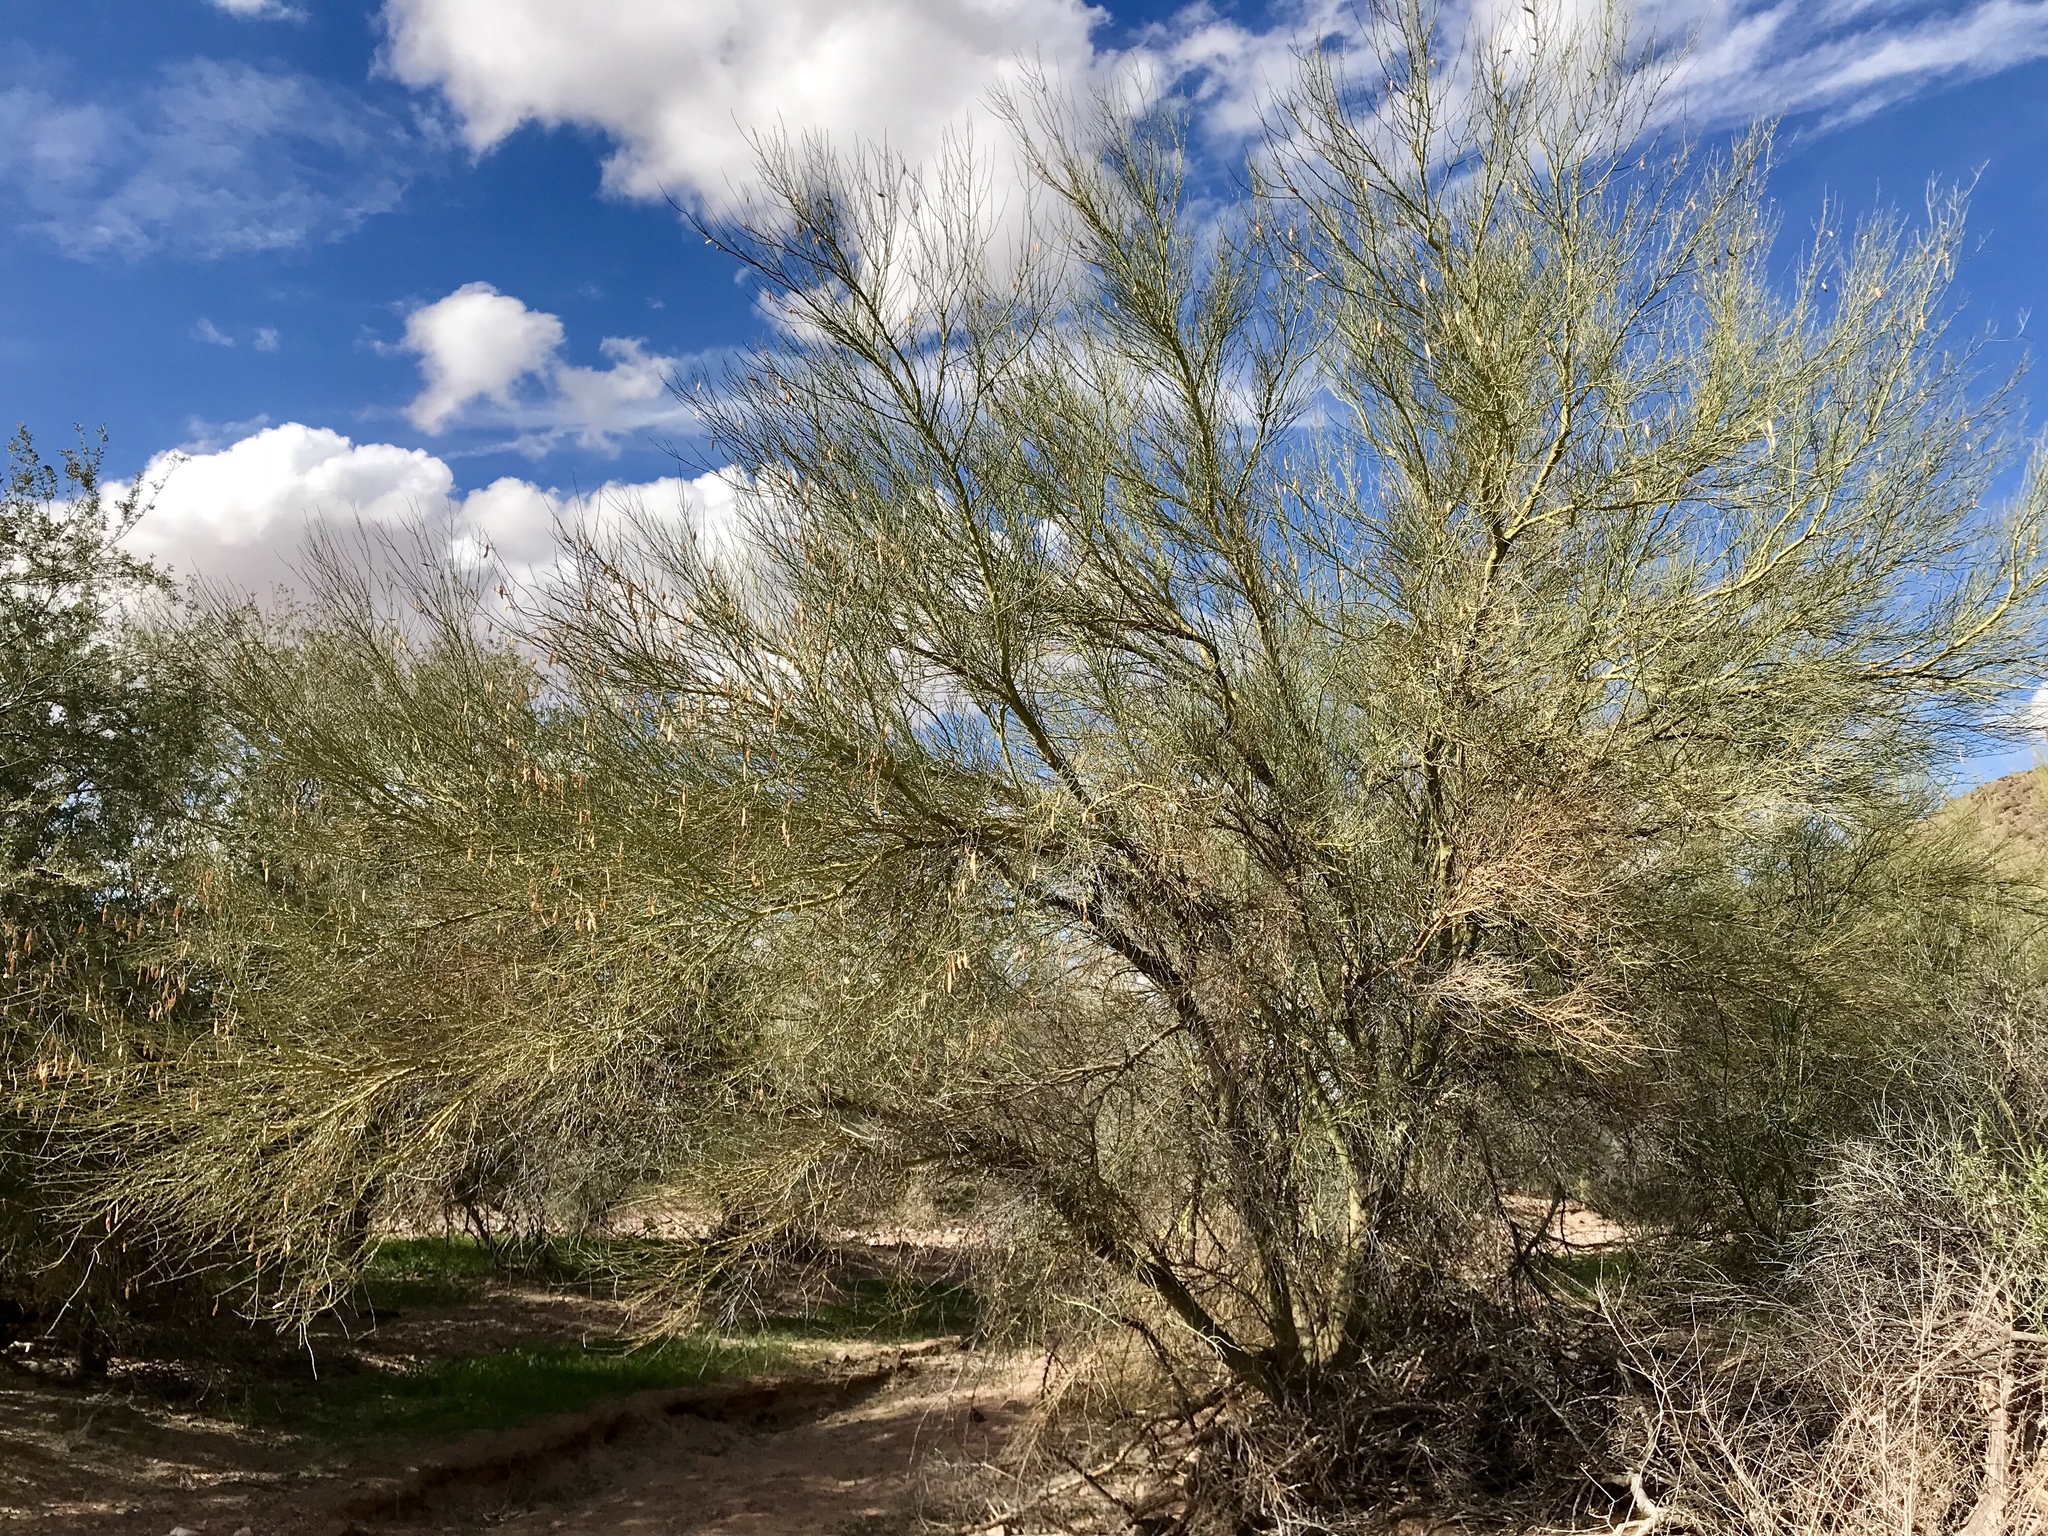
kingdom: Plantae
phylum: Tracheophyta
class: Magnoliopsida
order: Fabales
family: Fabaceae
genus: Parkinsonia
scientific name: Parkinsonia florida
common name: Blue paloverde
